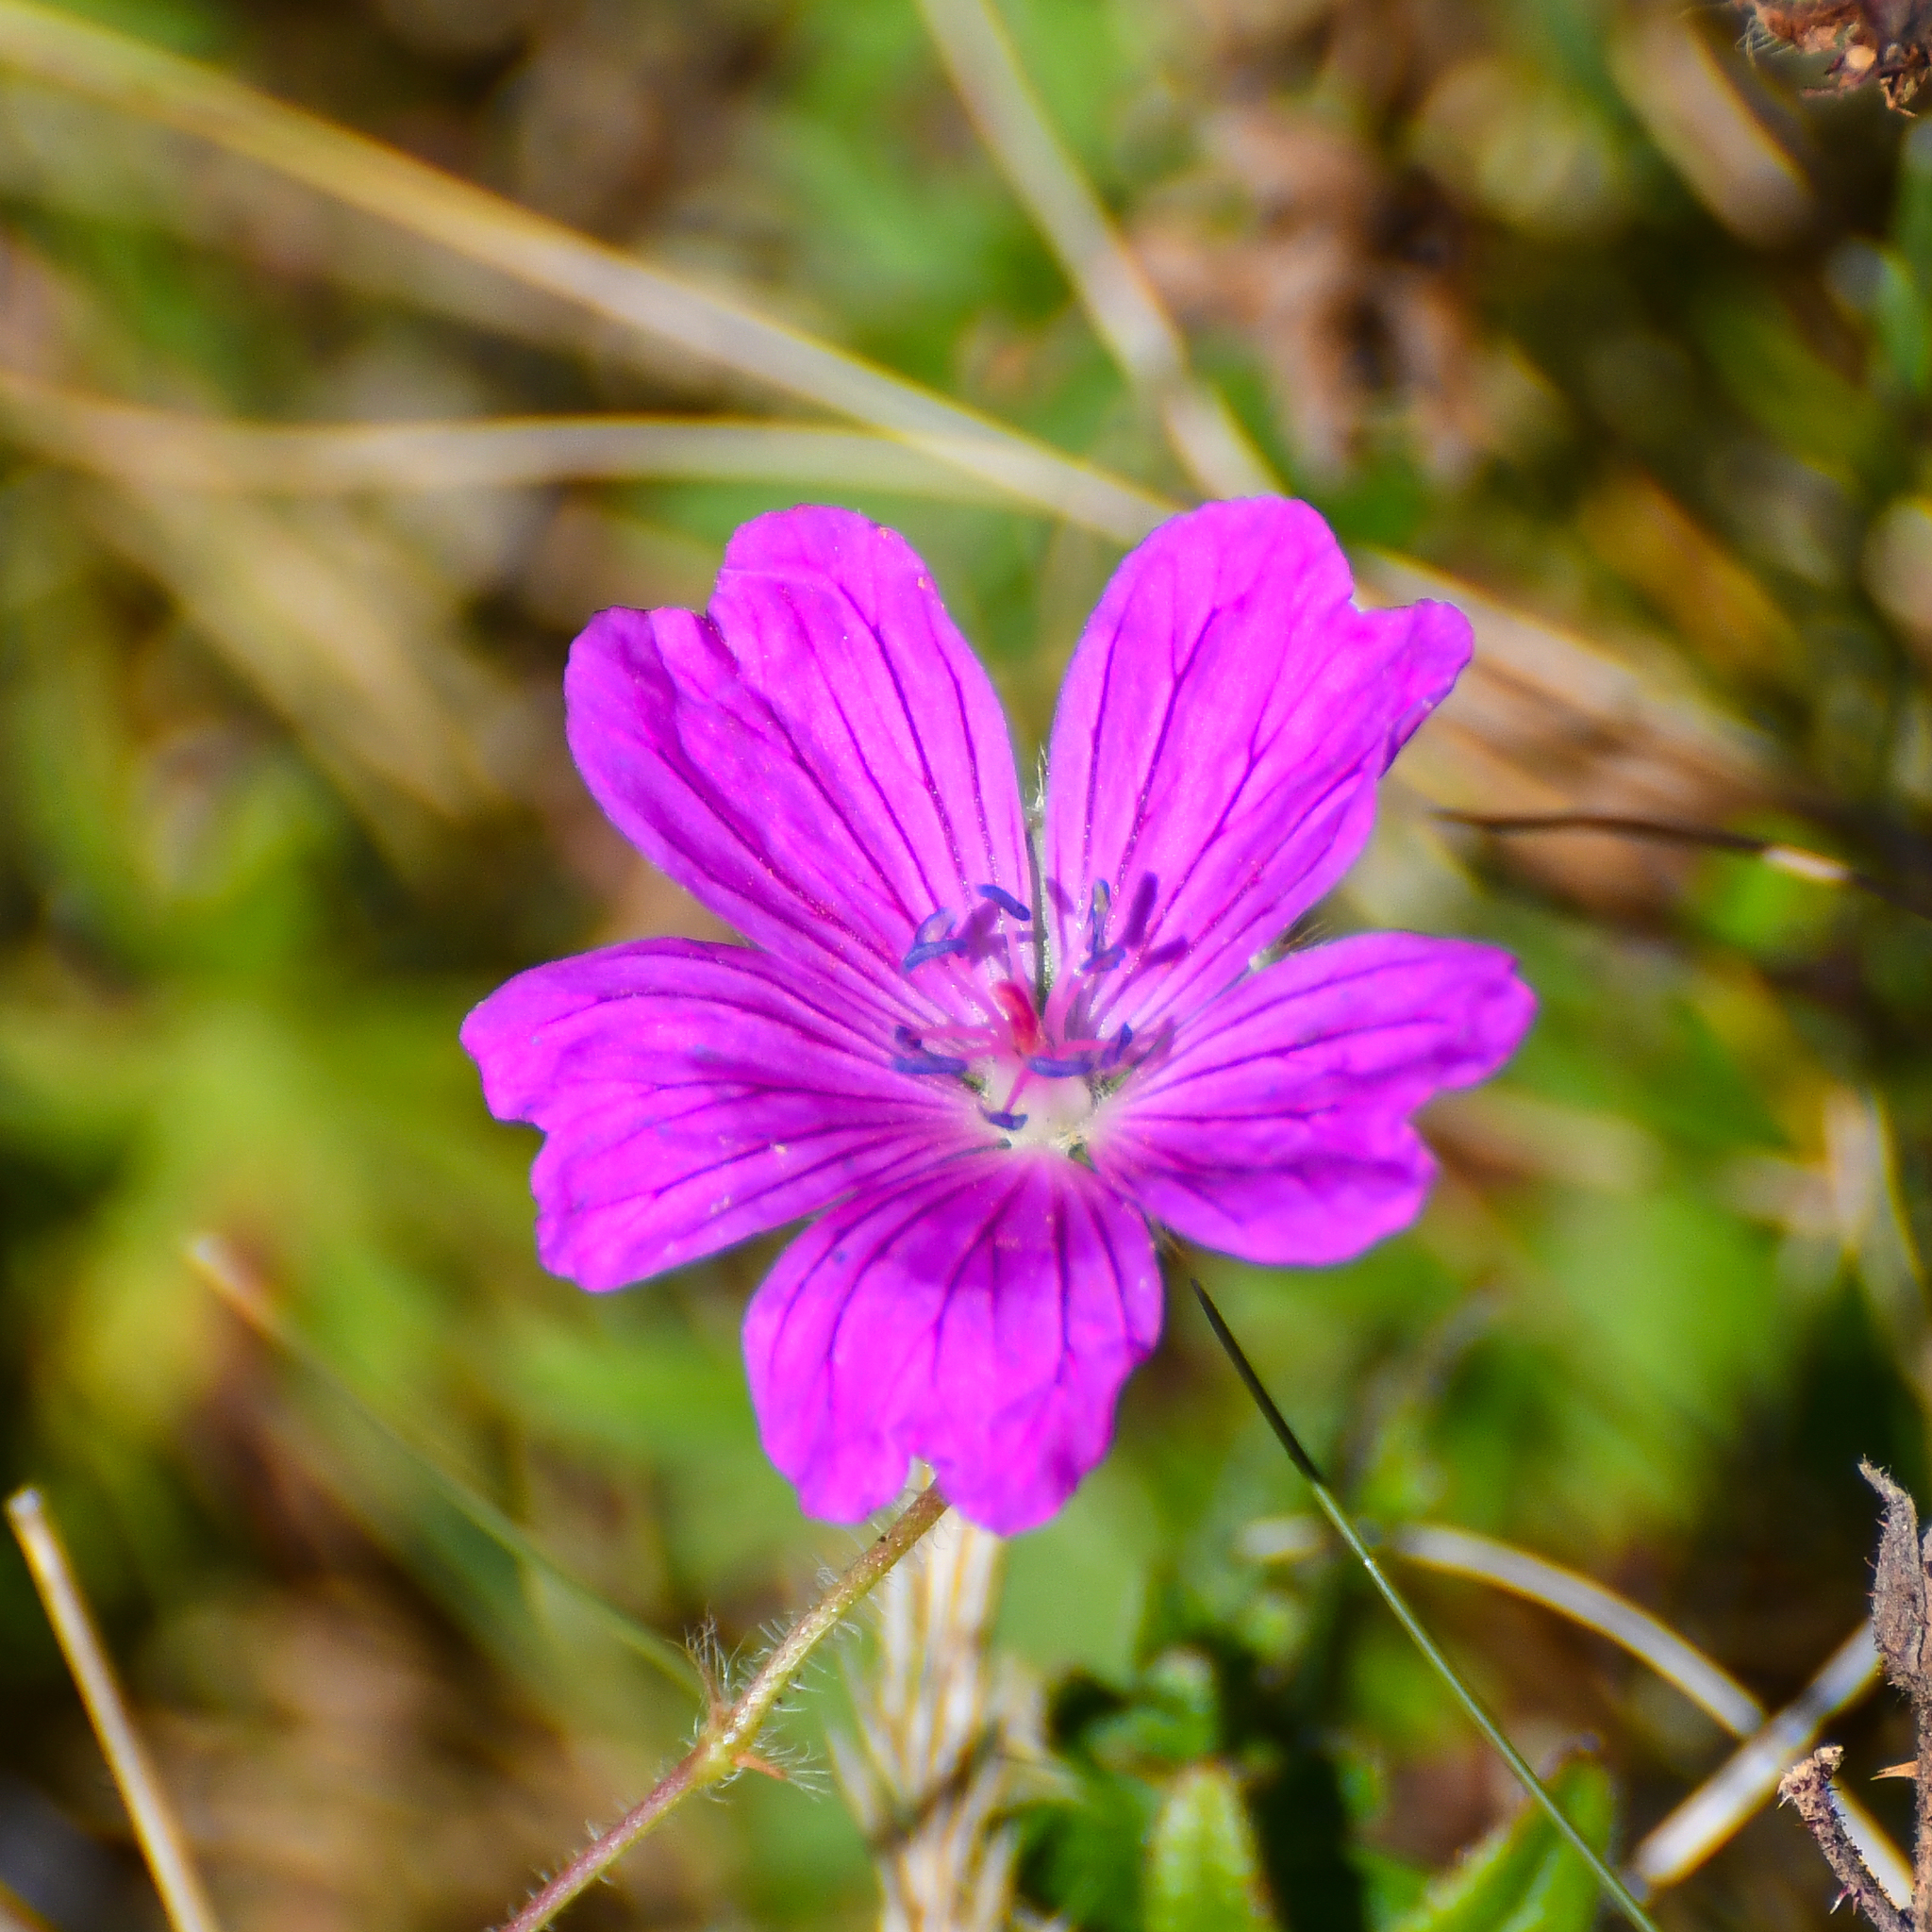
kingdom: Plantae
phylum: Tracheophyta
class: Magnoliopsida
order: Geraniales
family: Geraniaceae
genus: Geranium
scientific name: Geranium sanguineum
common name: Bloody crane's-bill
